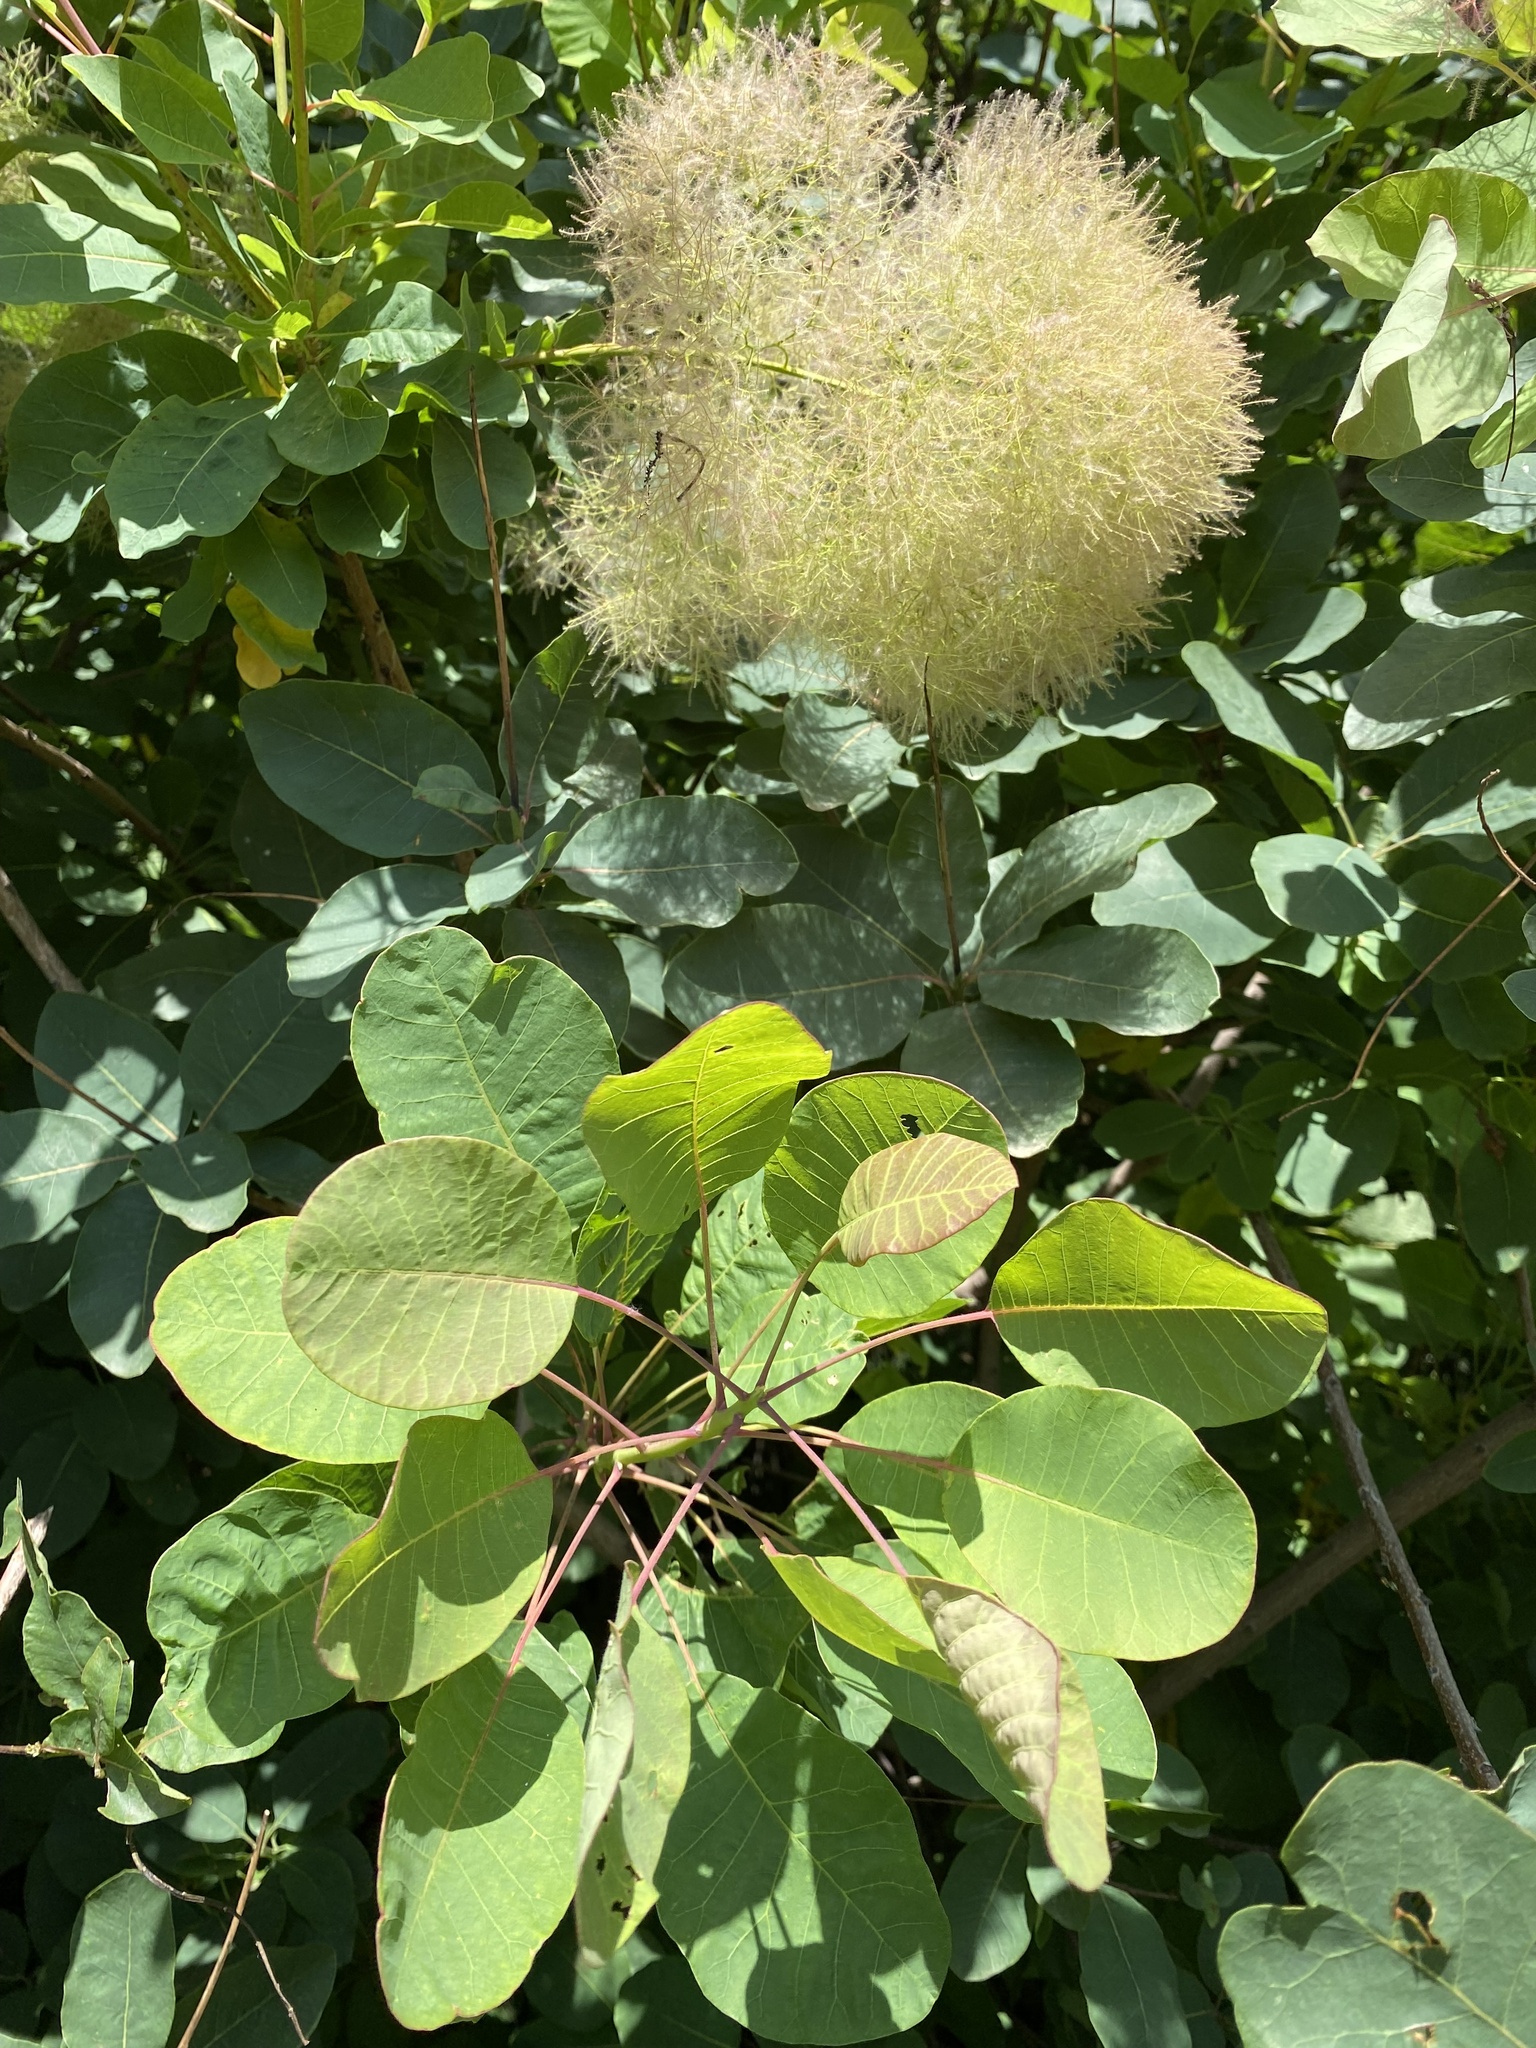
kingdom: Plantae
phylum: Tracheophyta
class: Magnoliopsida
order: Sapindales
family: Anacardiaceae
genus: Cotinus
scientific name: Cotinus coggygria
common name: Smoke-tree
